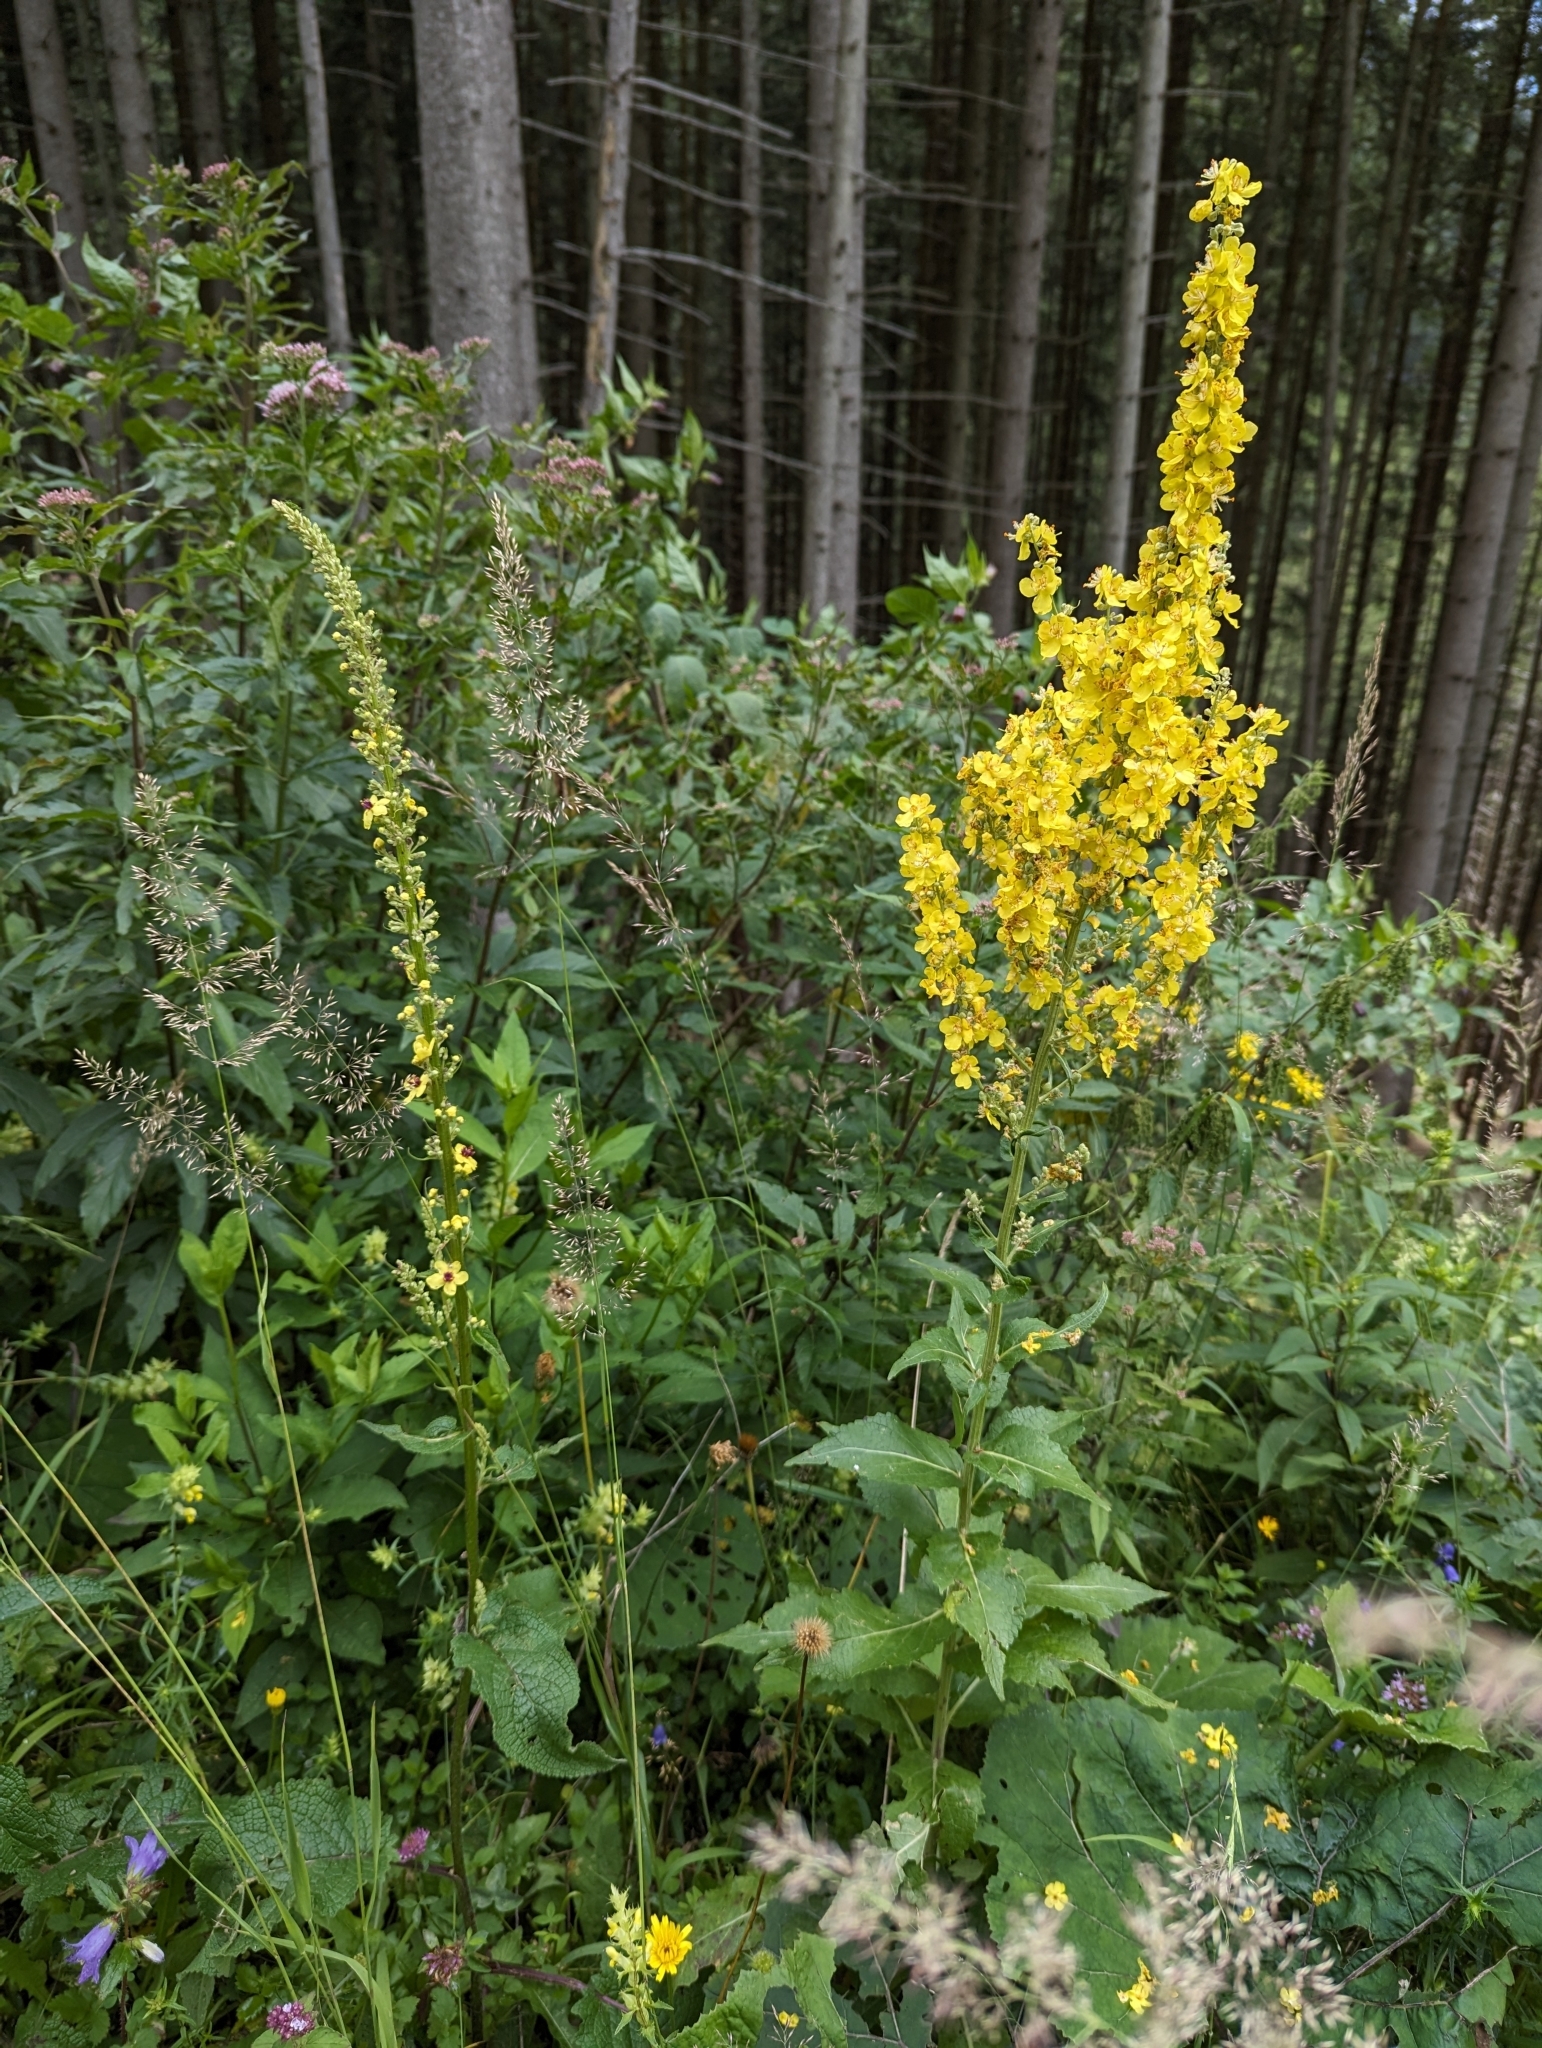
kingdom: Plantae
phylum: Tracheophyta
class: Magnoliopsida
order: Lamiales
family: Scrophulariaceae
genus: Verbascum
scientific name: Verbascum nigrum
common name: Dark mullein
